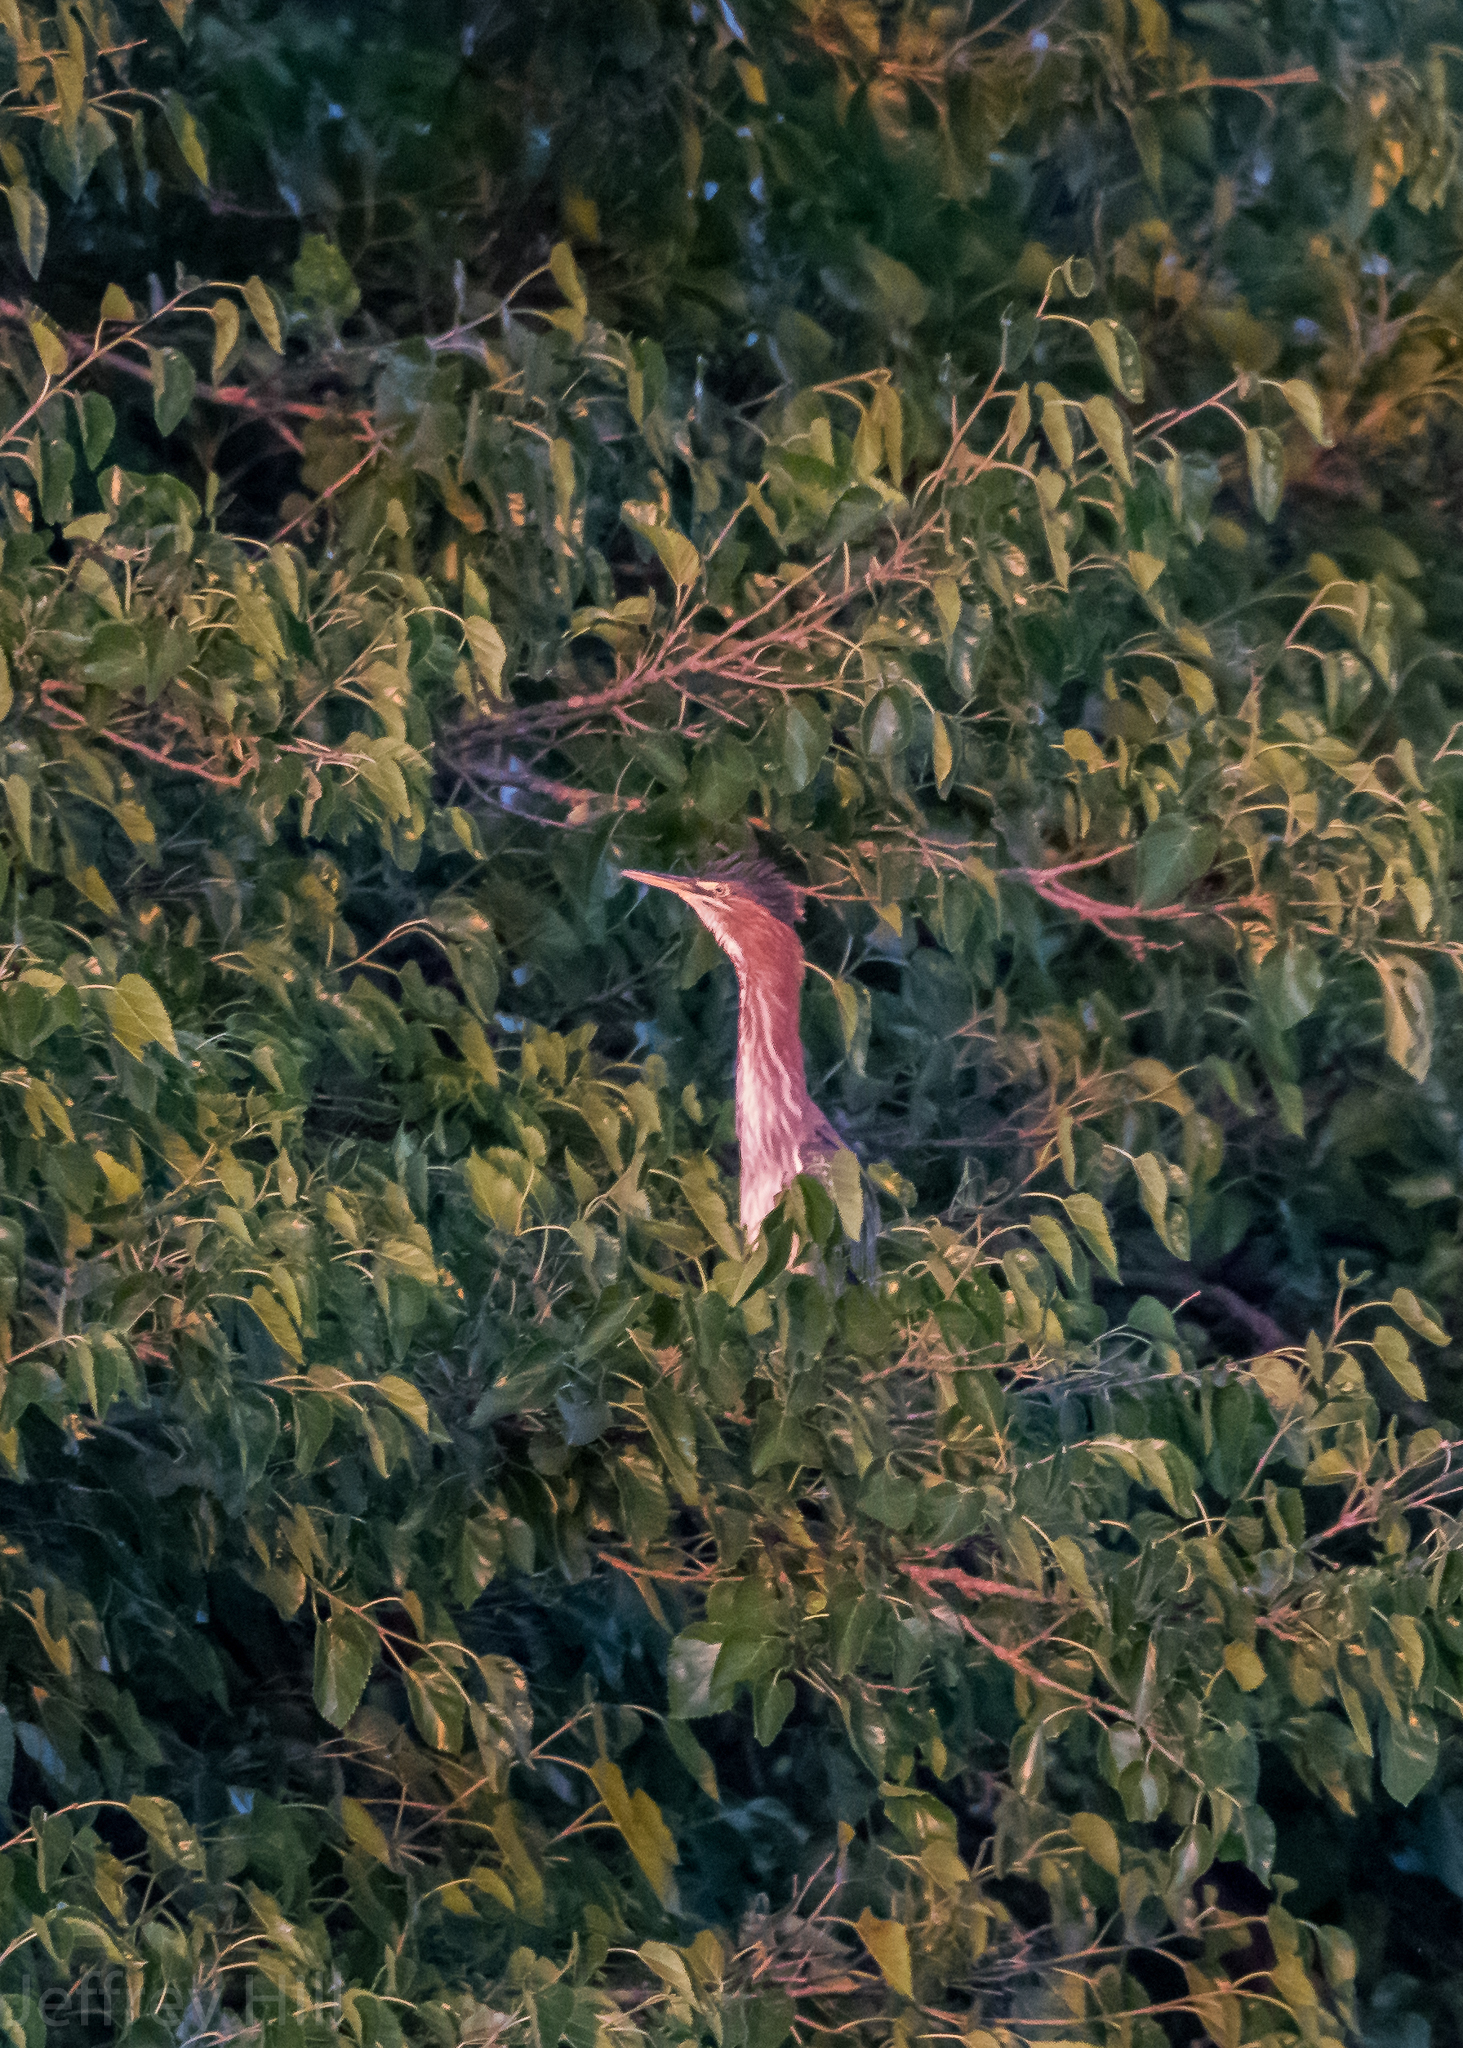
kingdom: Animalia
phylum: Chordata
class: Aves
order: Pelecaniformes
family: Ardeidae
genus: Butorides
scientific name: Butorides virescens
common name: Green heron
